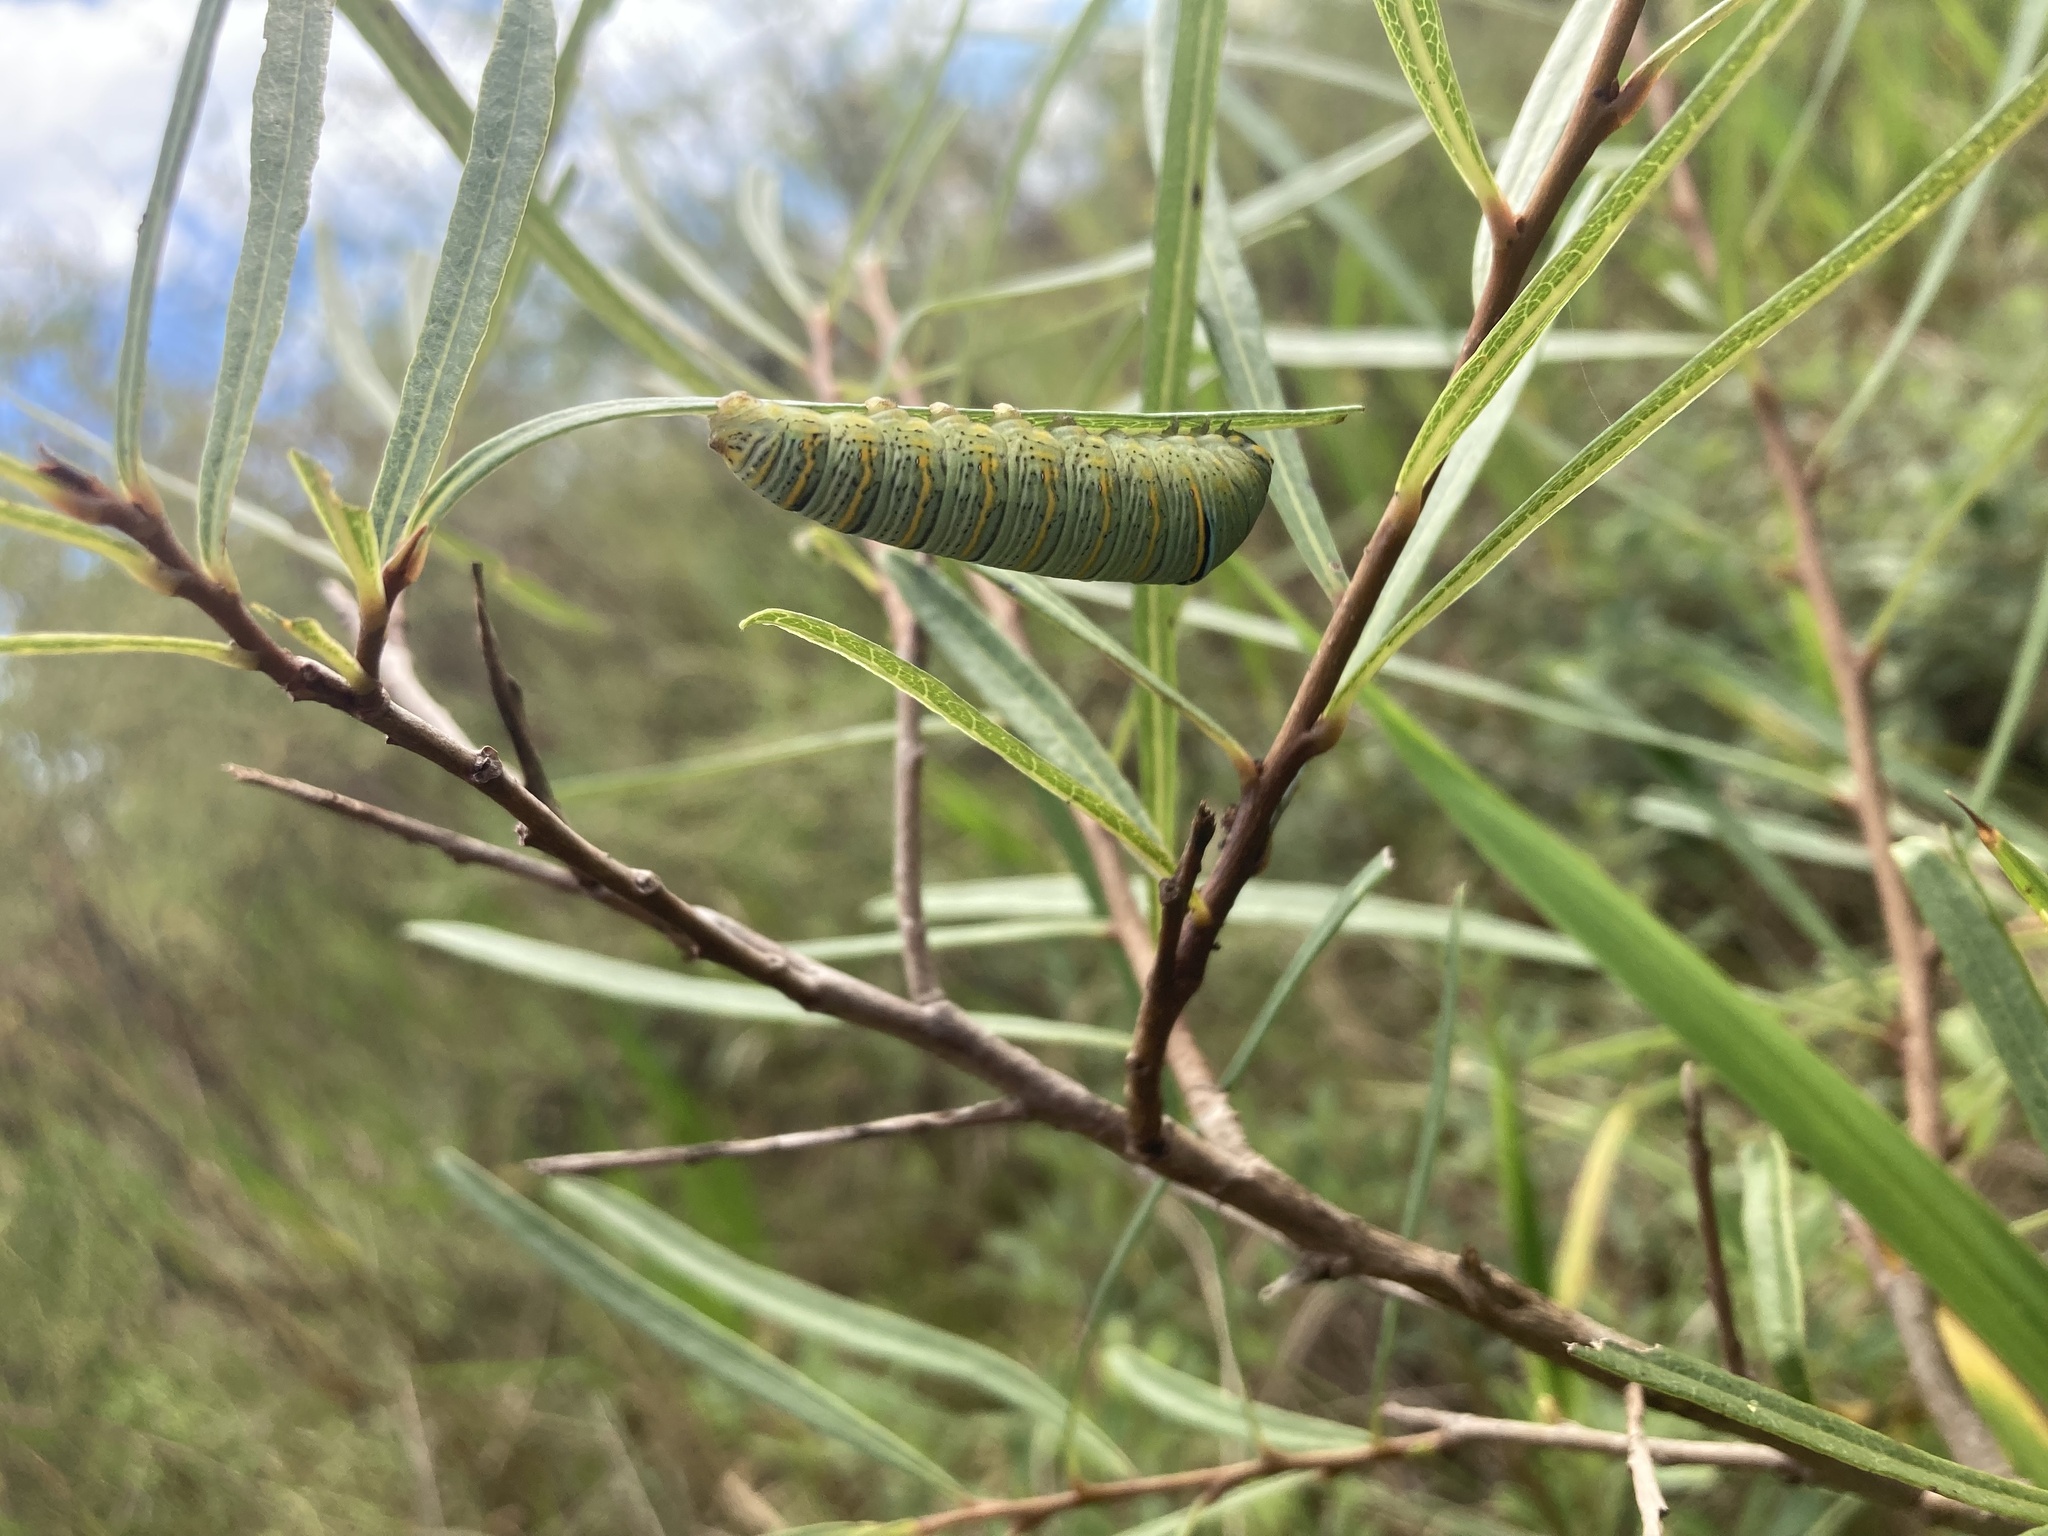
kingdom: Animalia
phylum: Arthropoda
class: Insecta
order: Lepidoptera
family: Papilionidae
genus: Protographium
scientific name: Protographium marcellus
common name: Zebra swallowtail
